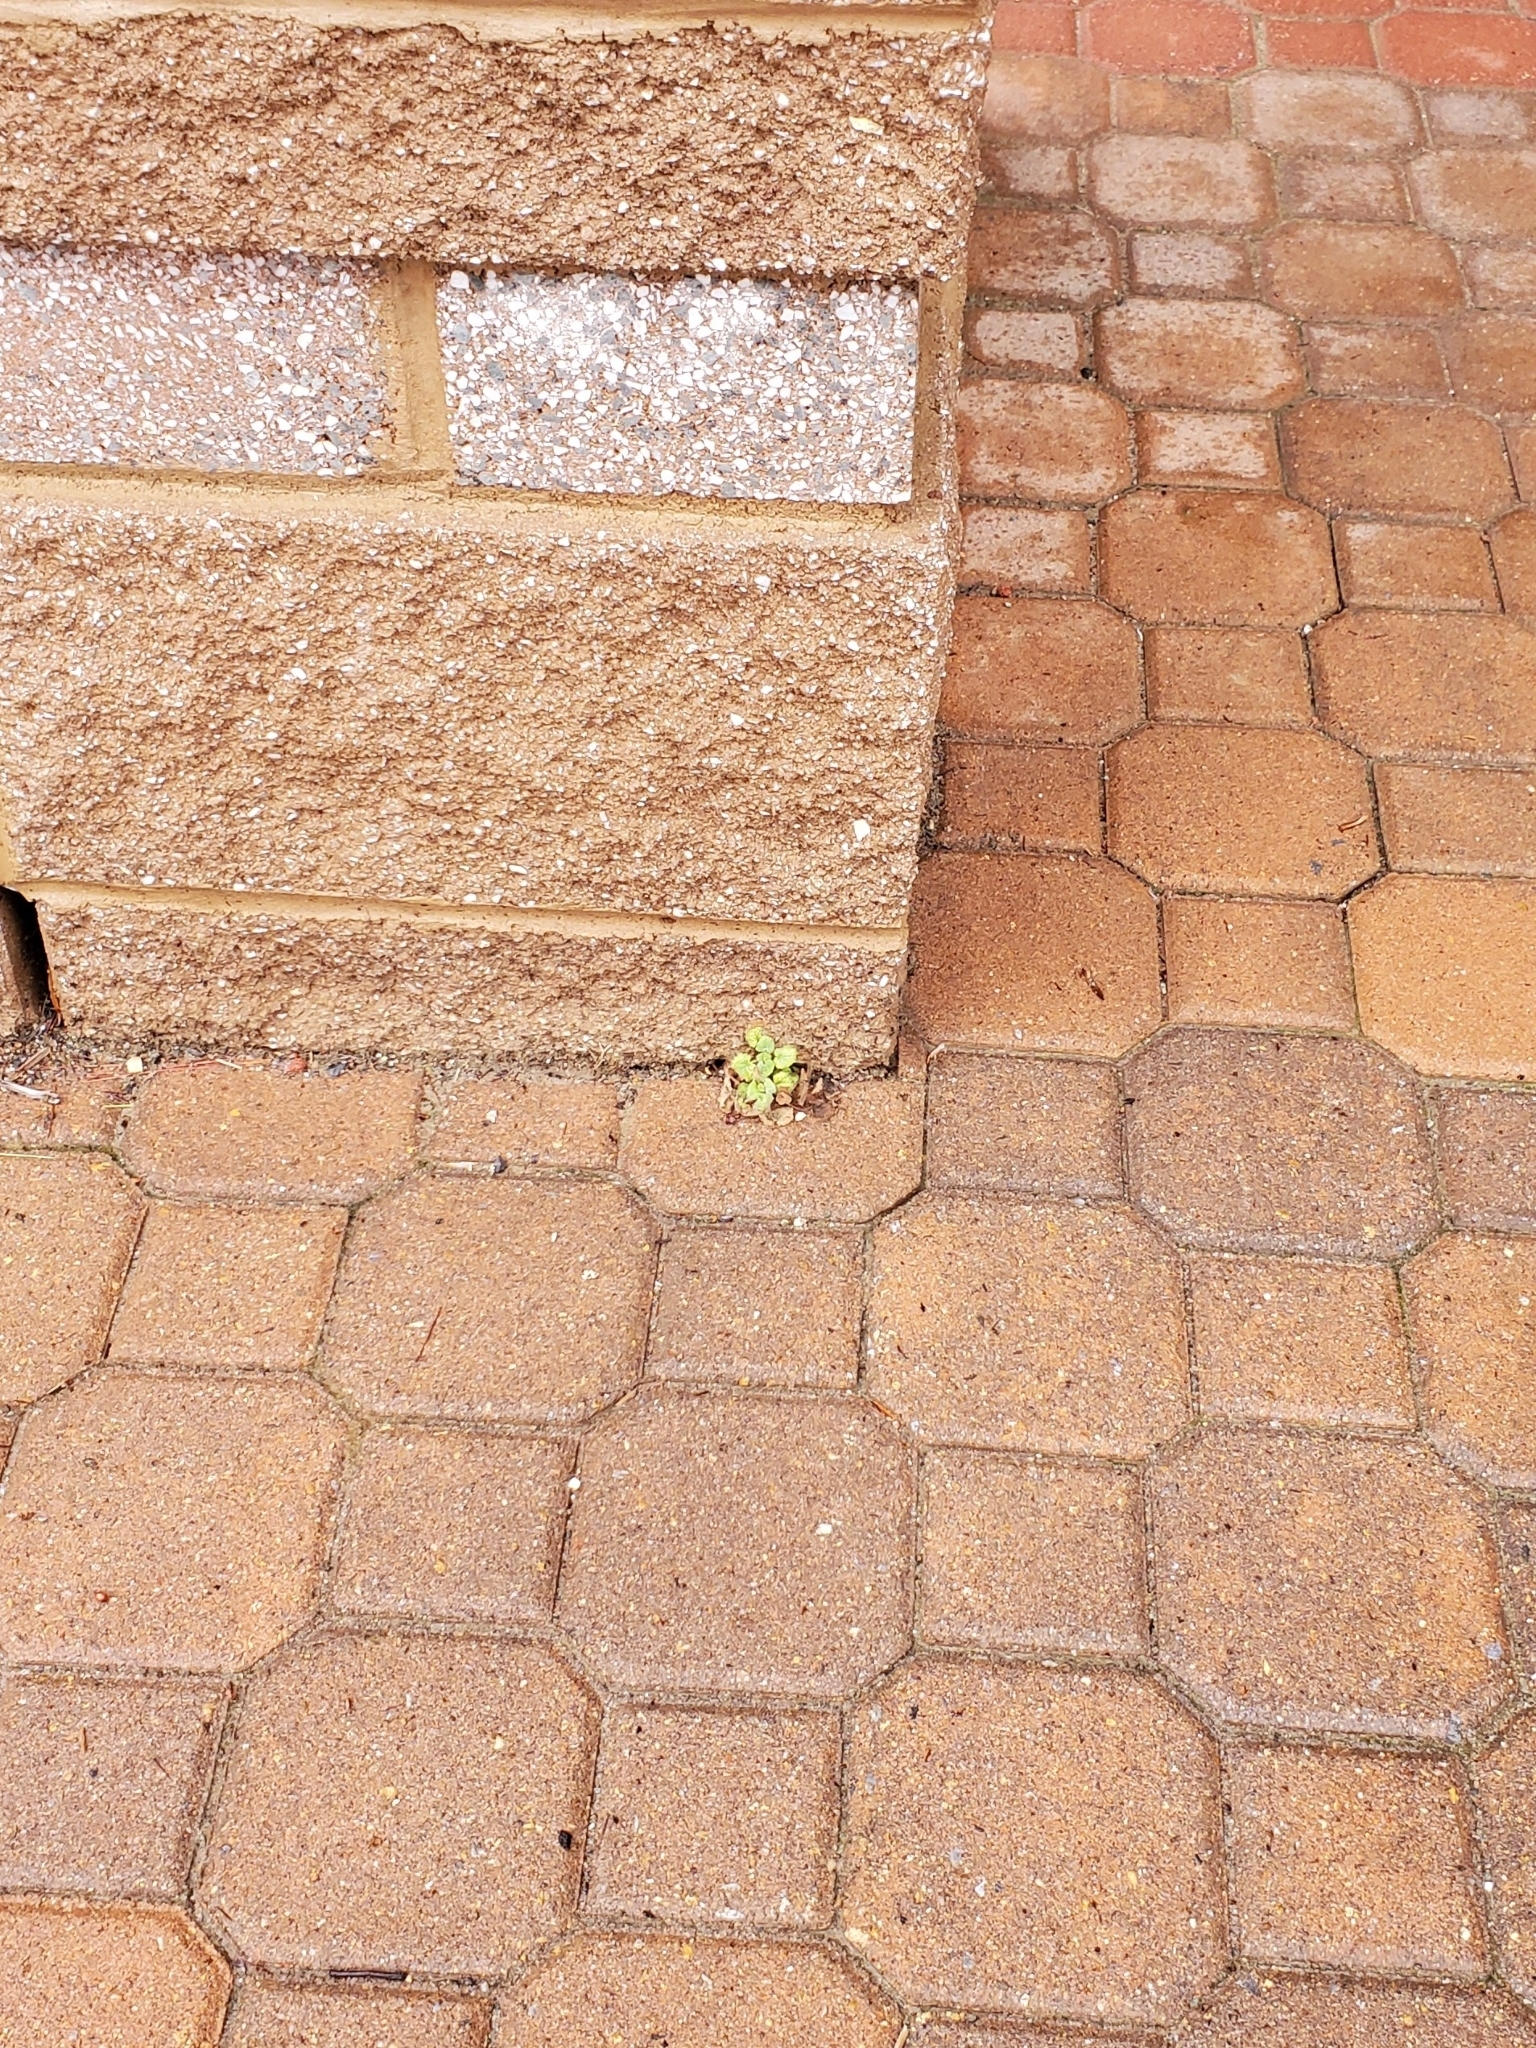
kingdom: Plantae
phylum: Tracheophyta
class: Magnoliopsida
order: Lamiales
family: Lamiaceae
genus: Lamium
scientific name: Lamium purpureum
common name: Red dead-nettle
